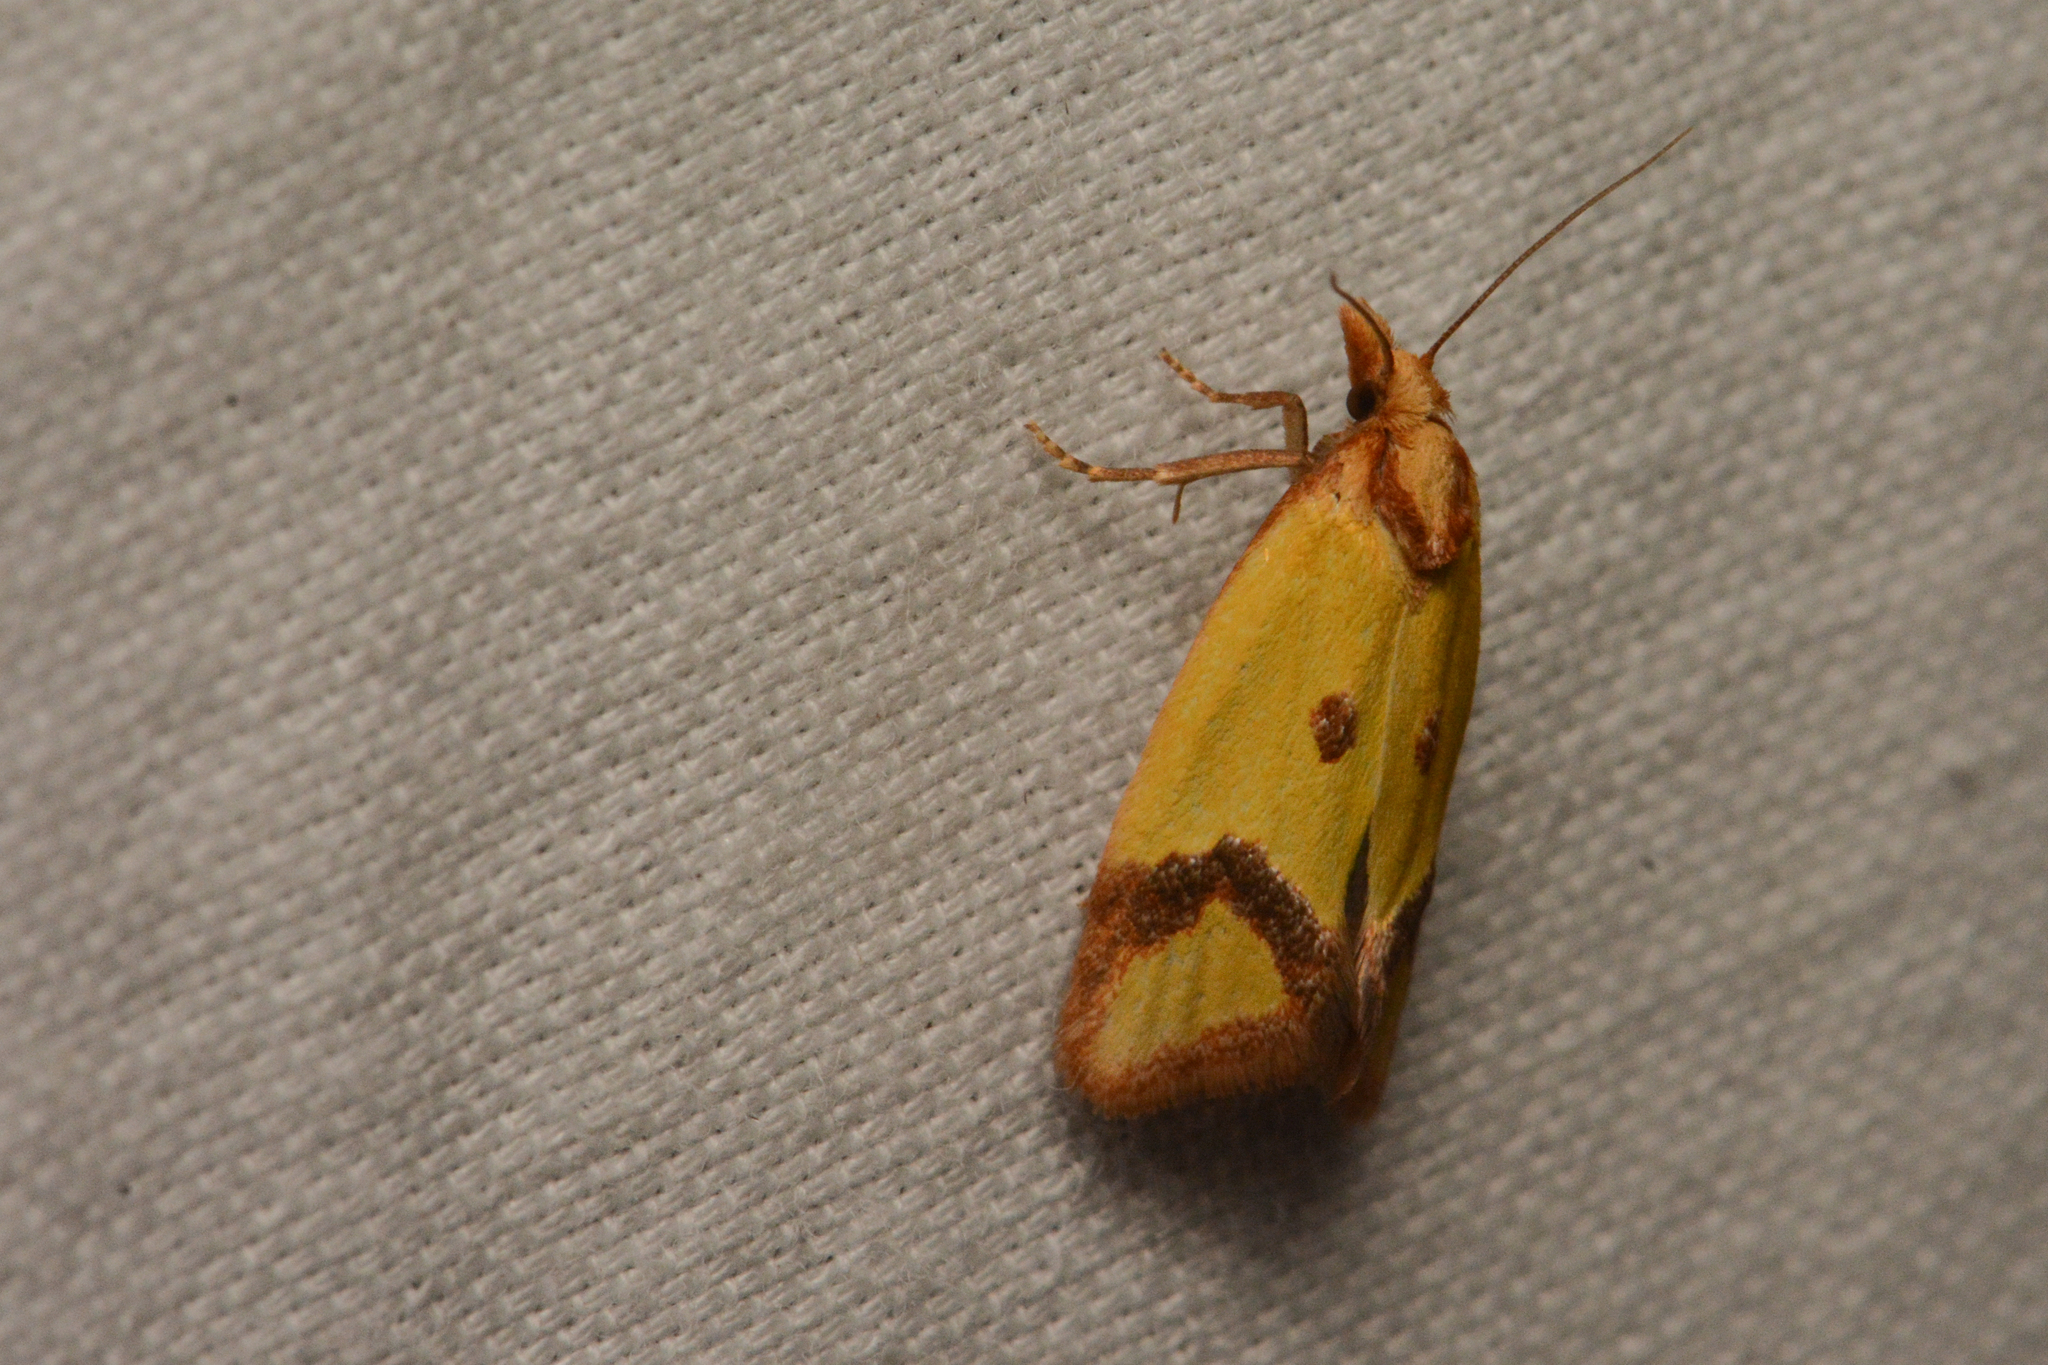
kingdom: Animalia
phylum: Arthropoda
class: Insecta
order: Lepidoptera
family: Tortricidae
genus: Agapeta
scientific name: Agapeta zoegana
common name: Sulfur knapweed root moth
